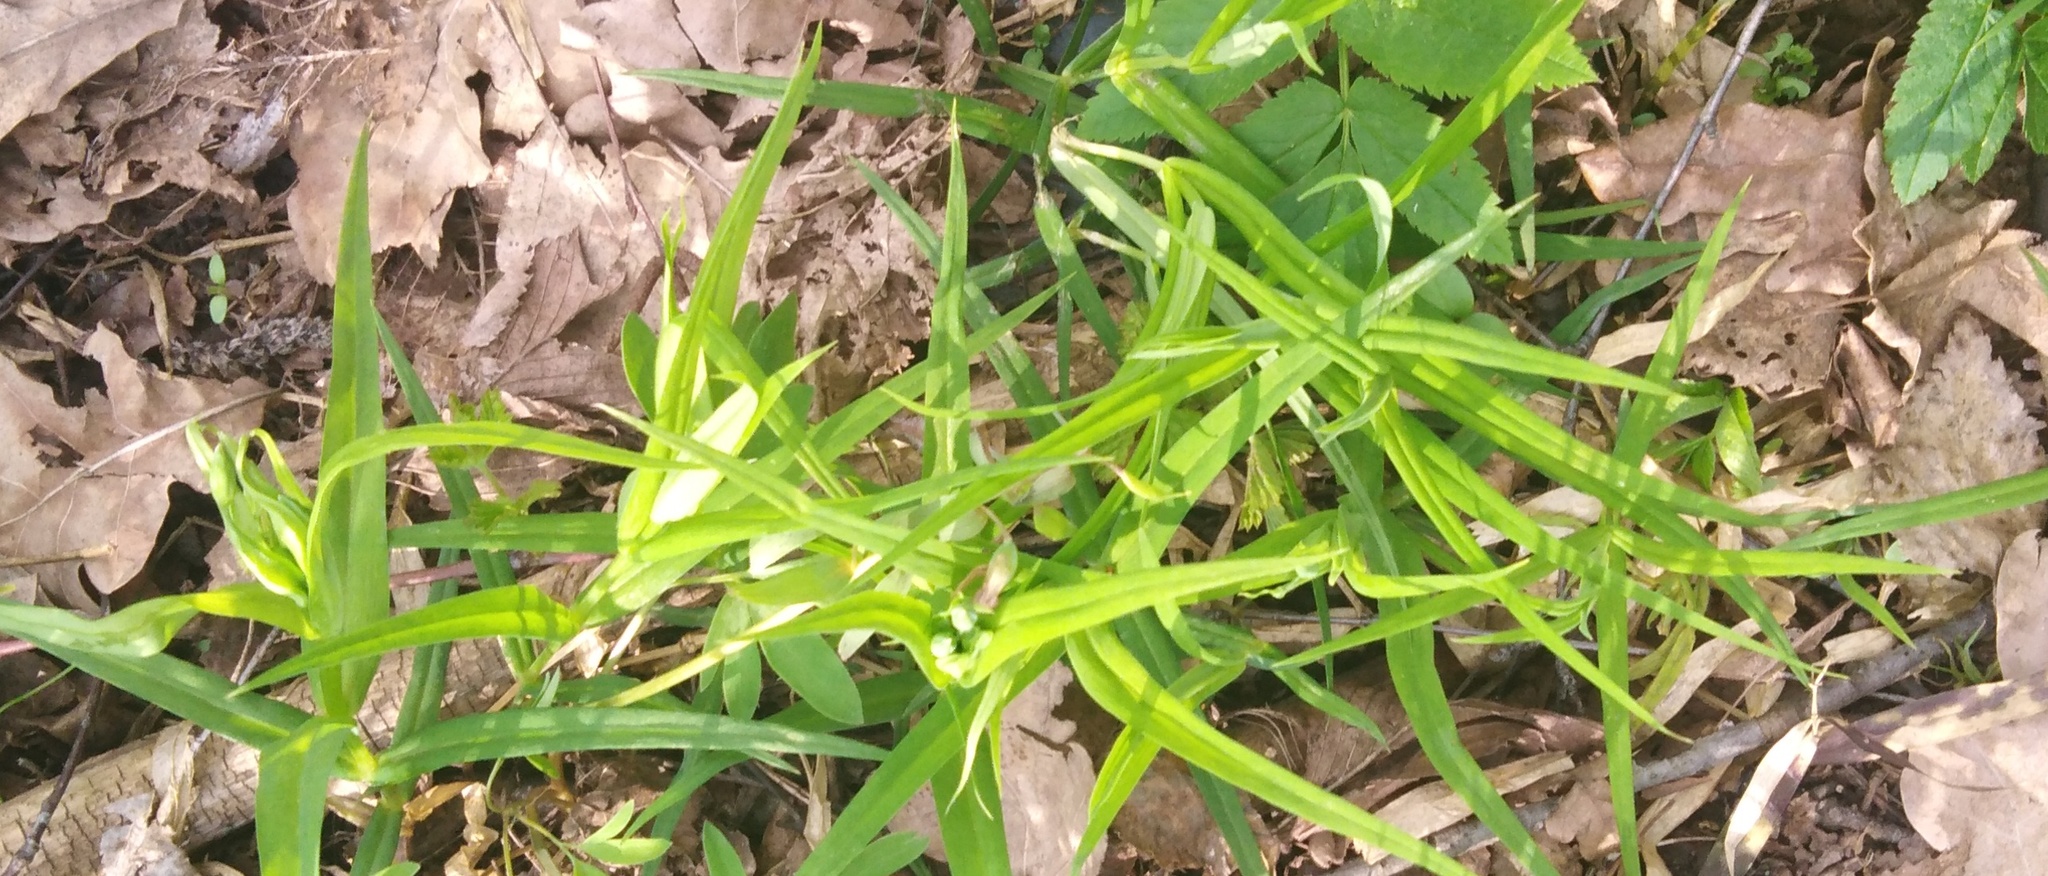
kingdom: Plantae
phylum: Tracheophyta
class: Magnoliopsida
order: Caryophyllales
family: Caryophyllaceae
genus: Rabelera
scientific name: Rabelera holostea
